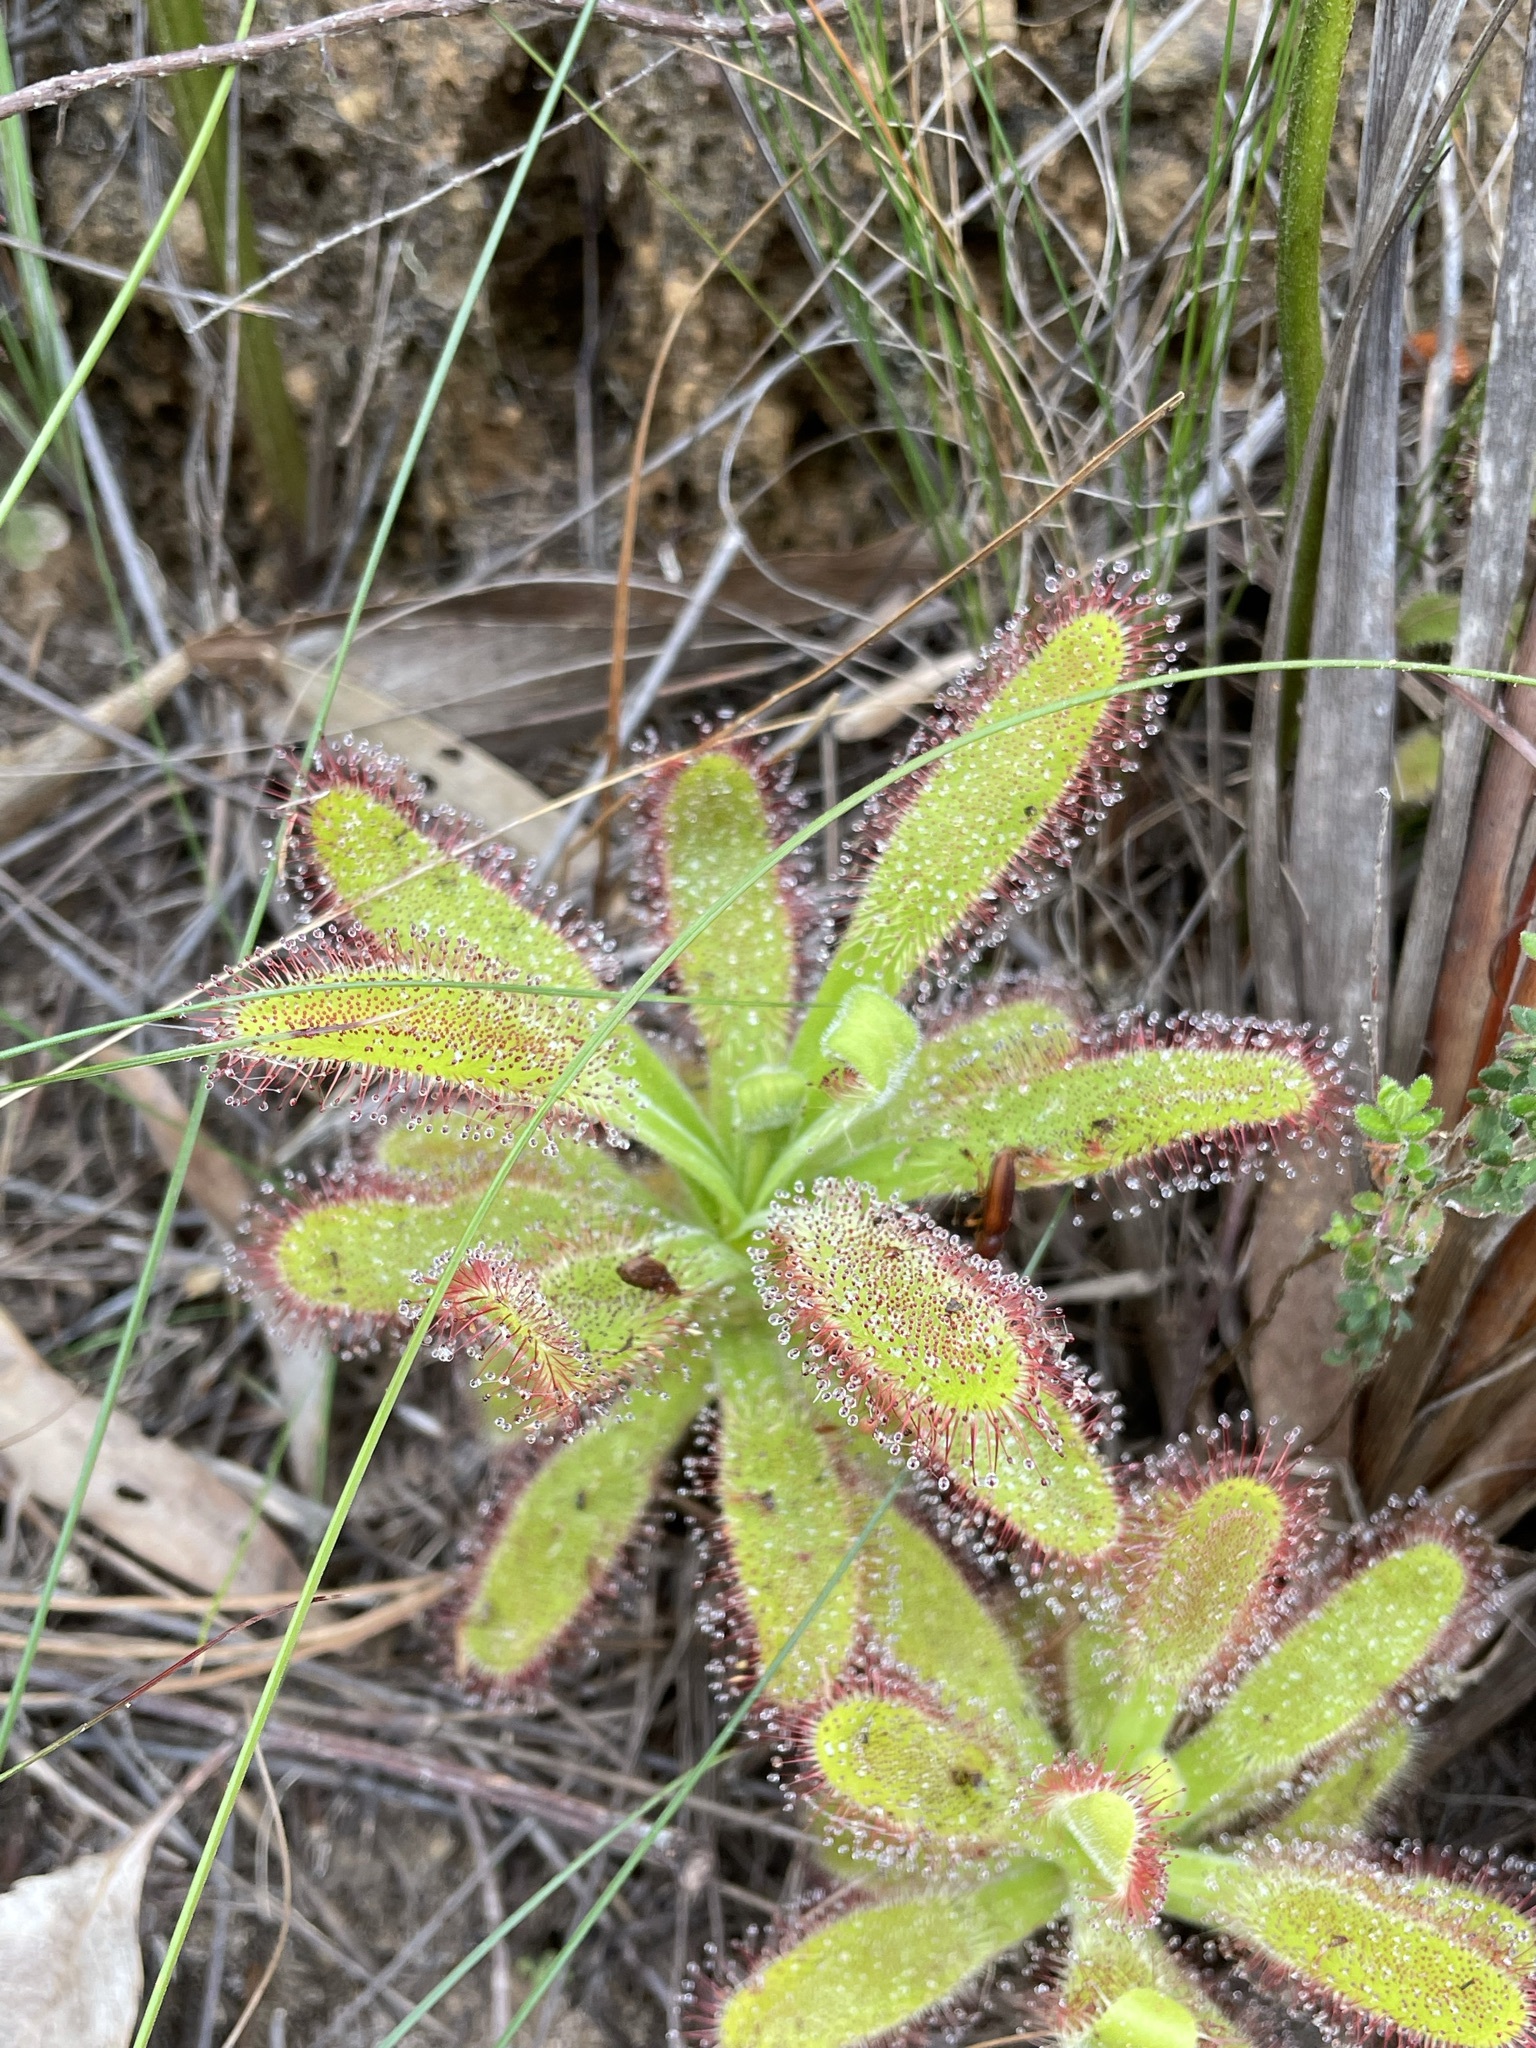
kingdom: Plantae
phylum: Tracheophyta
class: Magnoliopsida
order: Caryophyllales
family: Droseraceae
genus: Drosera
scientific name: Drosera hilaris
